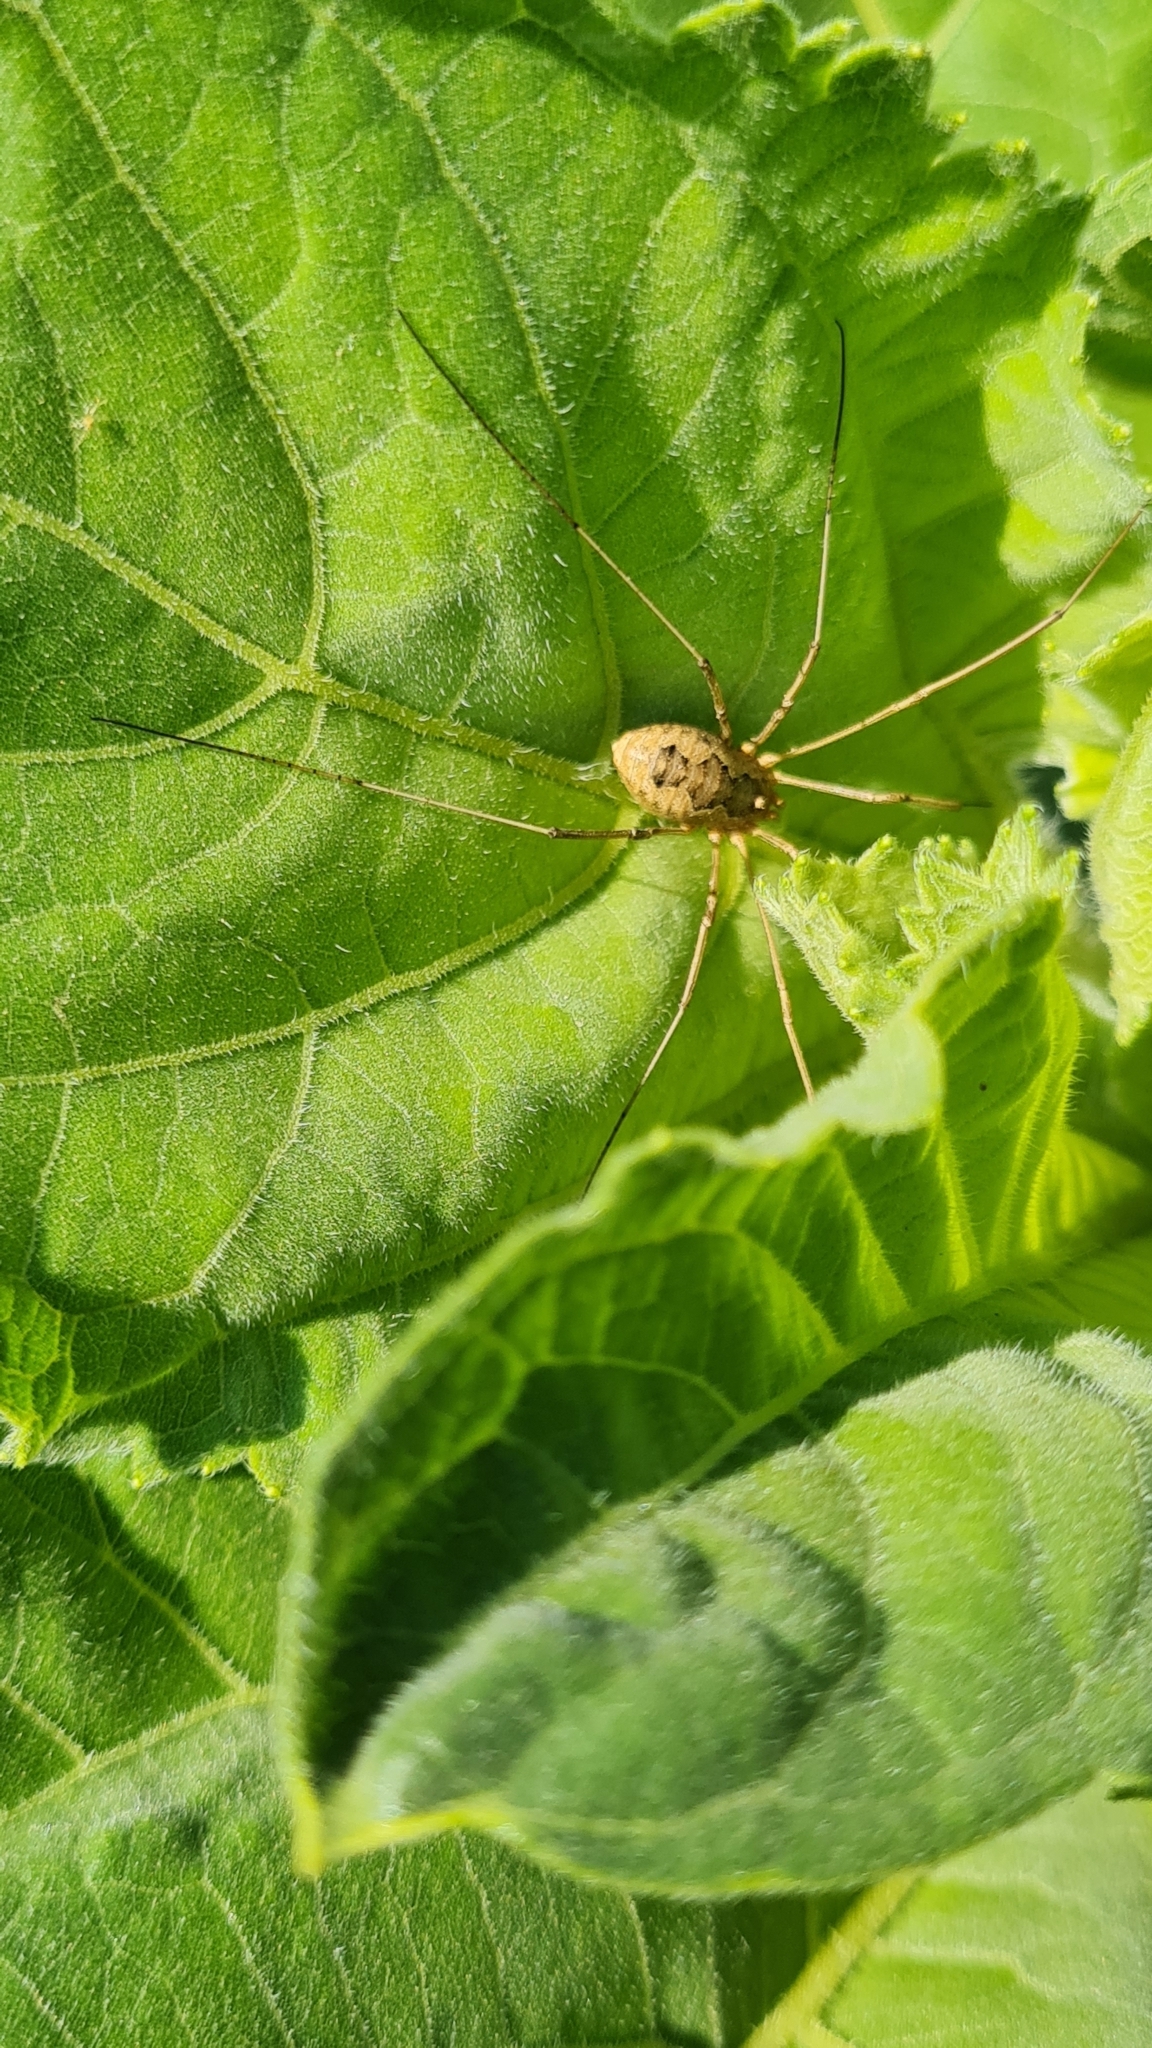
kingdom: Animalia
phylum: Arthropoda
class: Arachnida
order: Opiliones
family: Phalangiidae
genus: Phalangium
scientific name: Phalangium opilio
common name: Daddy longleg
